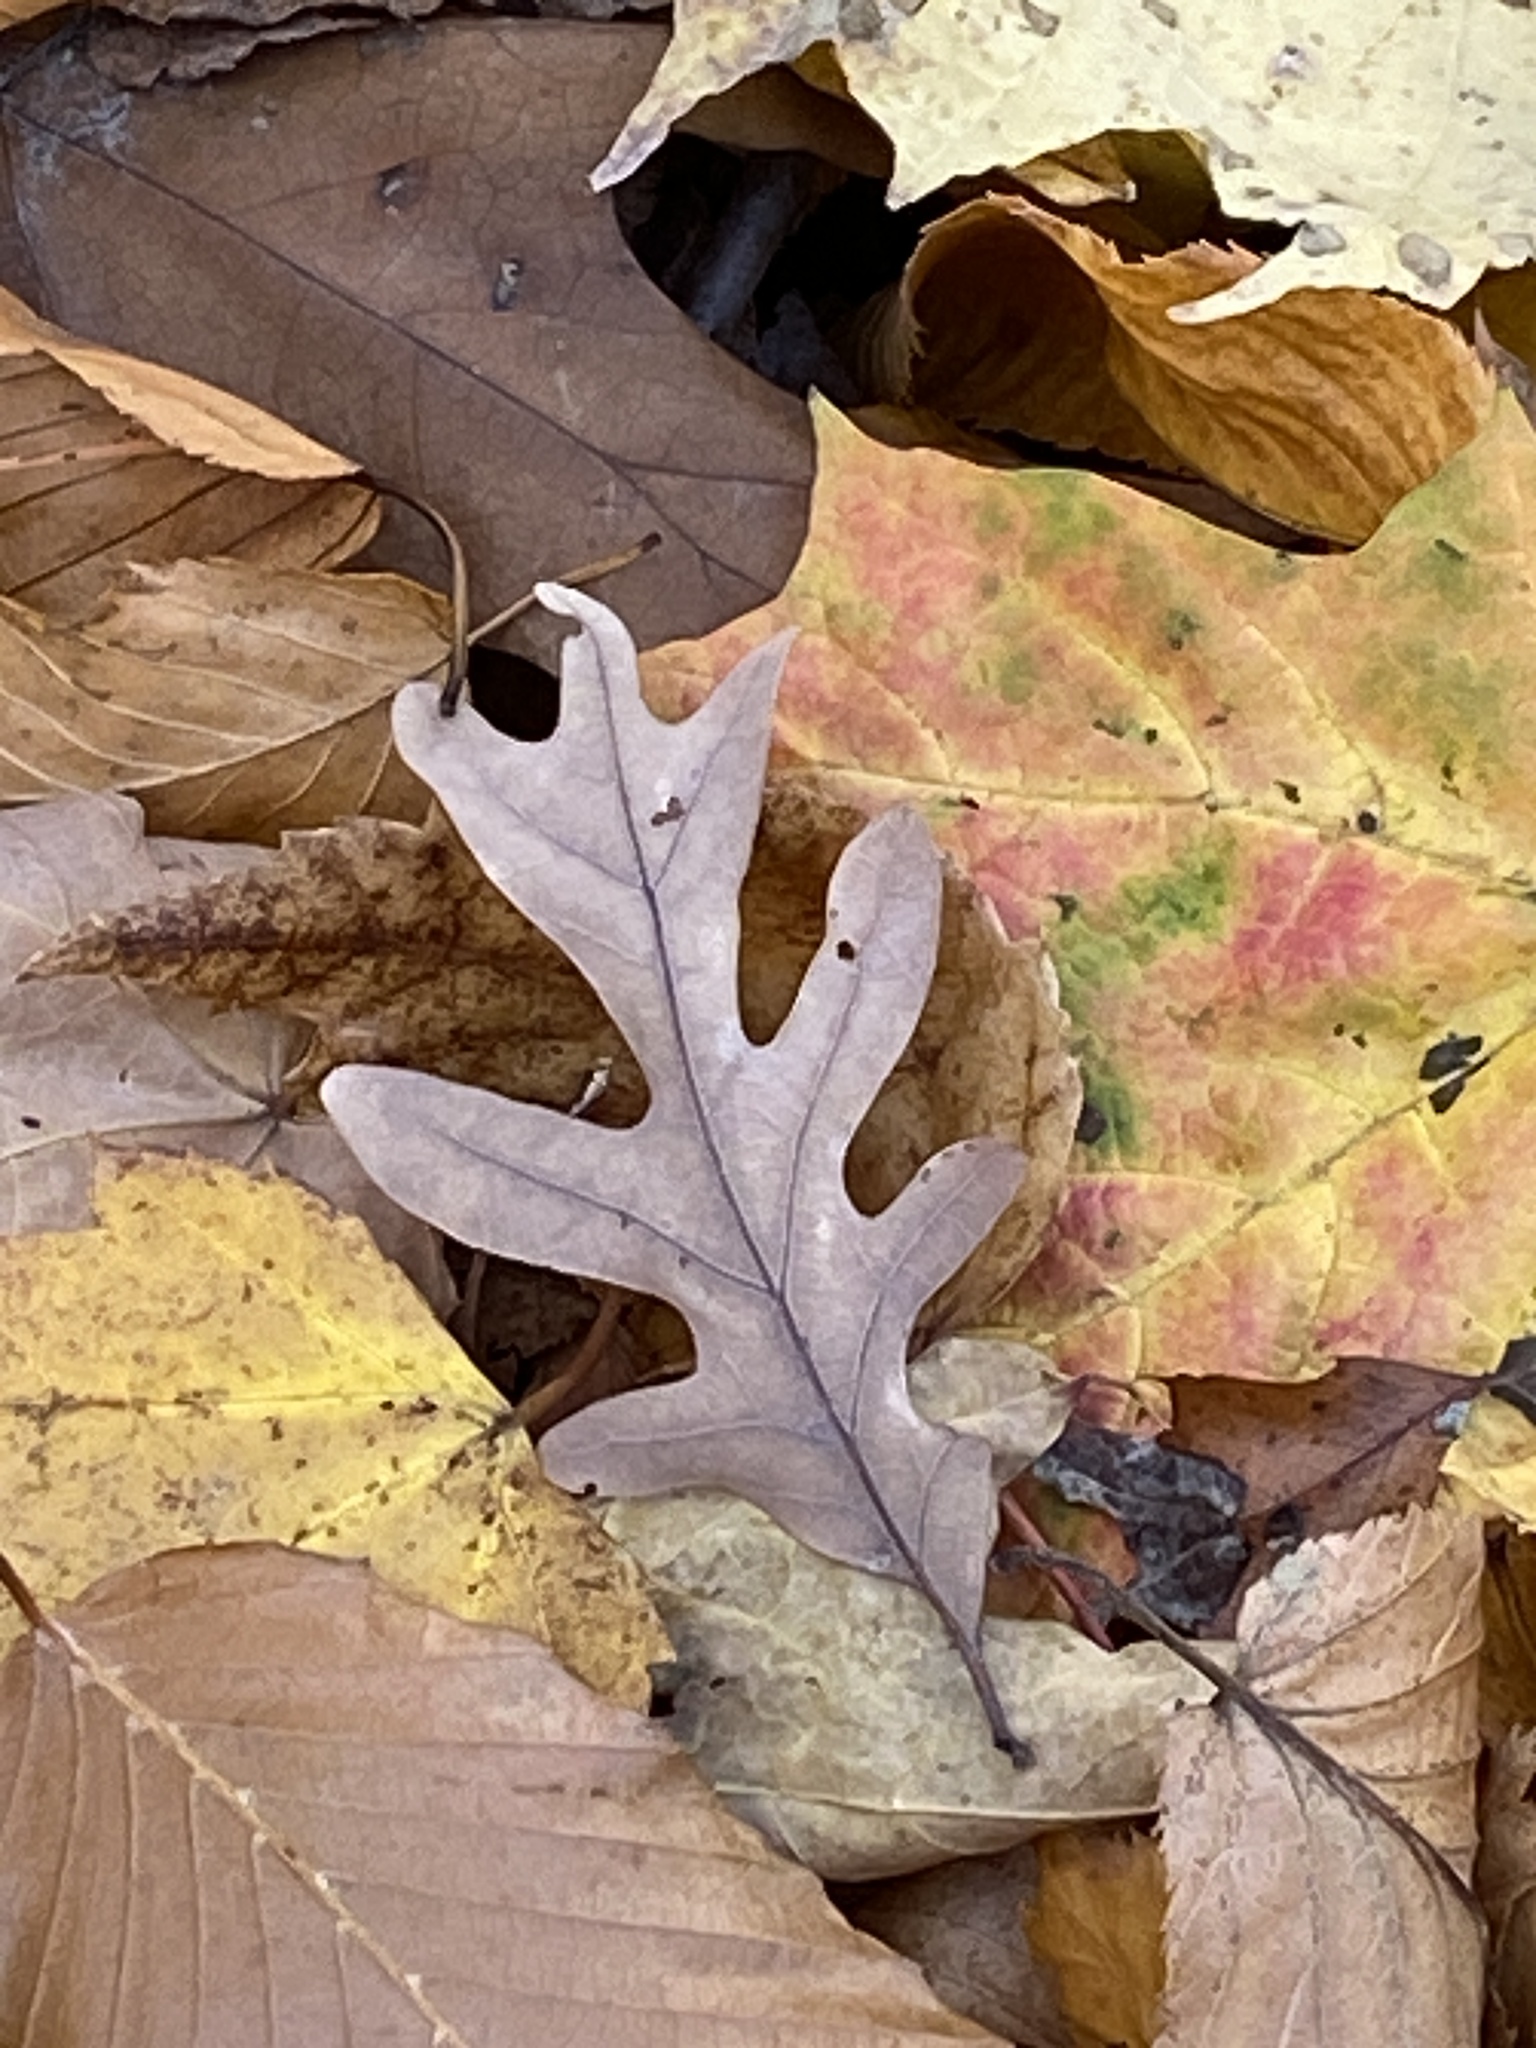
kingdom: Plantae
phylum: Tracheophyta
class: Magnoliopsida
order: Fagales
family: Fagaceae
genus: Quercus
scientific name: Quercus alba
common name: White oak
